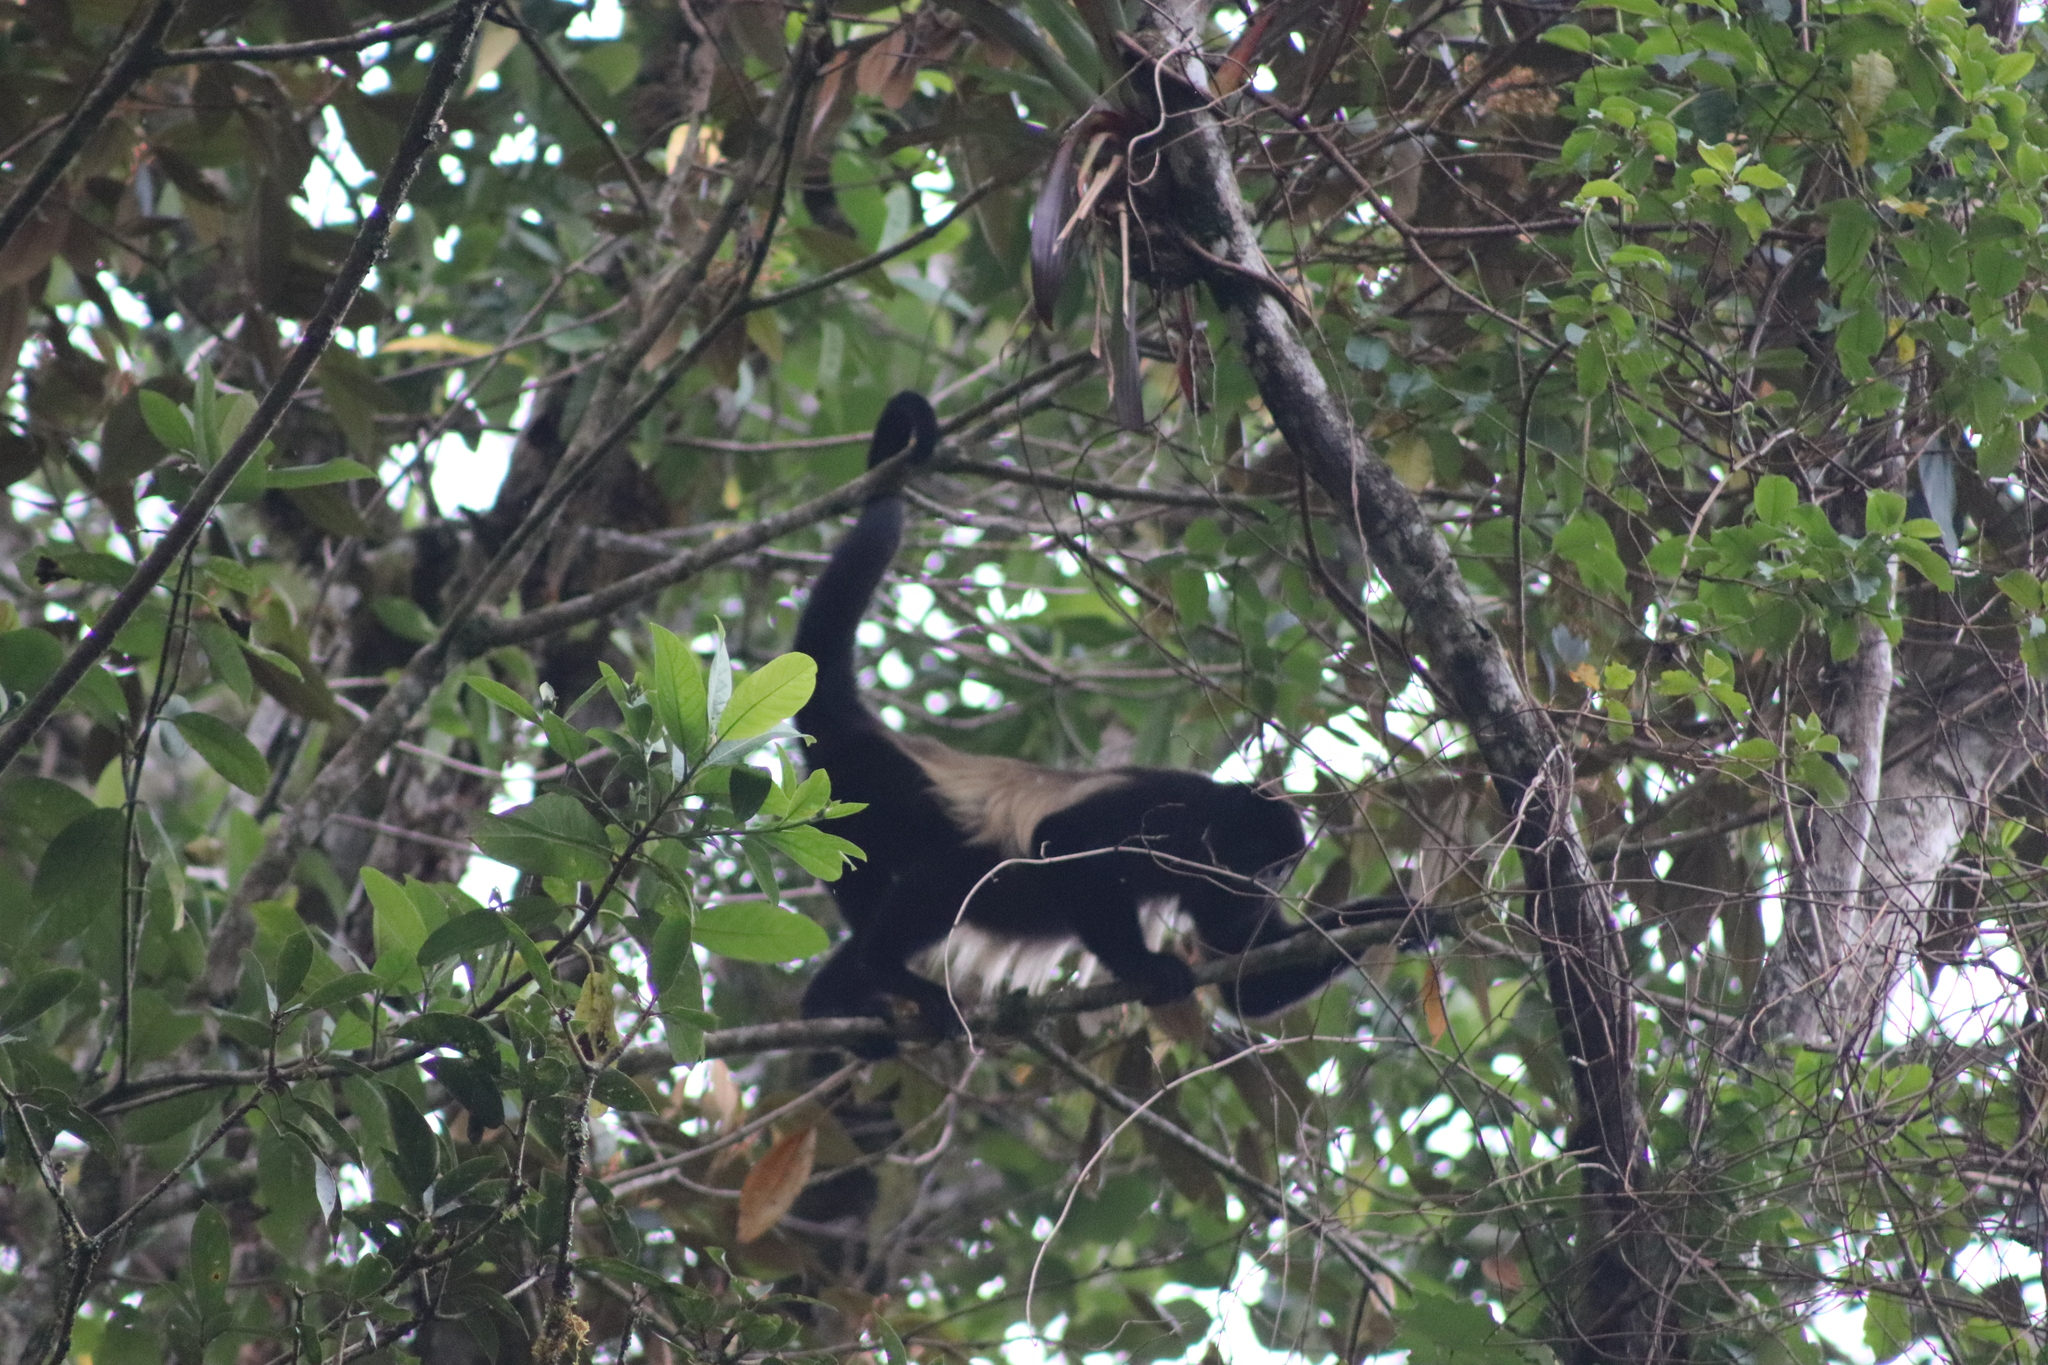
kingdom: Animalia
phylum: Chordata
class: Mammalia
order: Primates
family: Atelidae
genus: Alouatta
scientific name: Alouatta palliata
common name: Mantled howler
